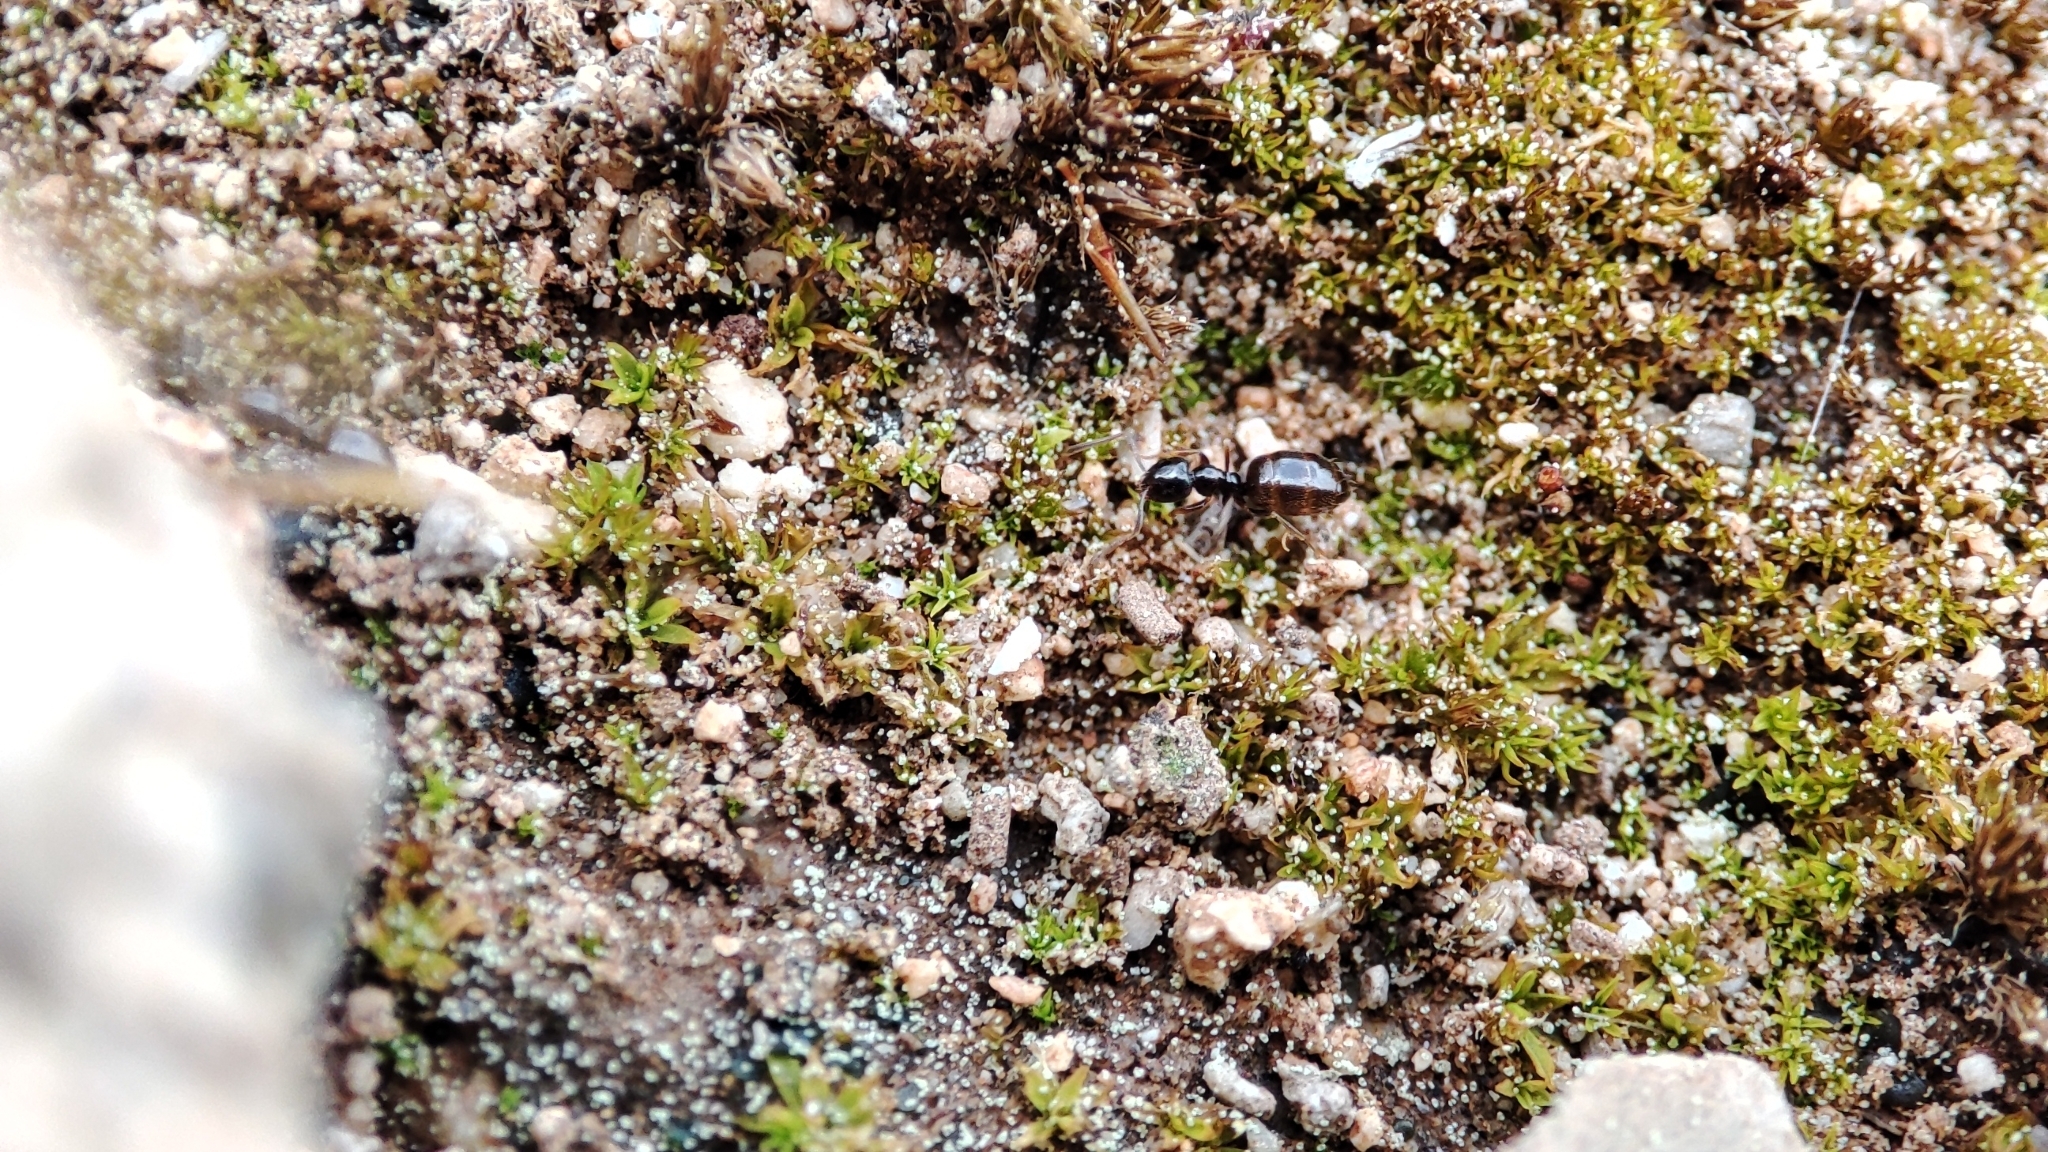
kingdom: Animalia
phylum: Arthropoda
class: Insecta
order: Hymenoptera
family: Formicidae
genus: Plagiolepis
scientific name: Plagiolepis pygmaea
